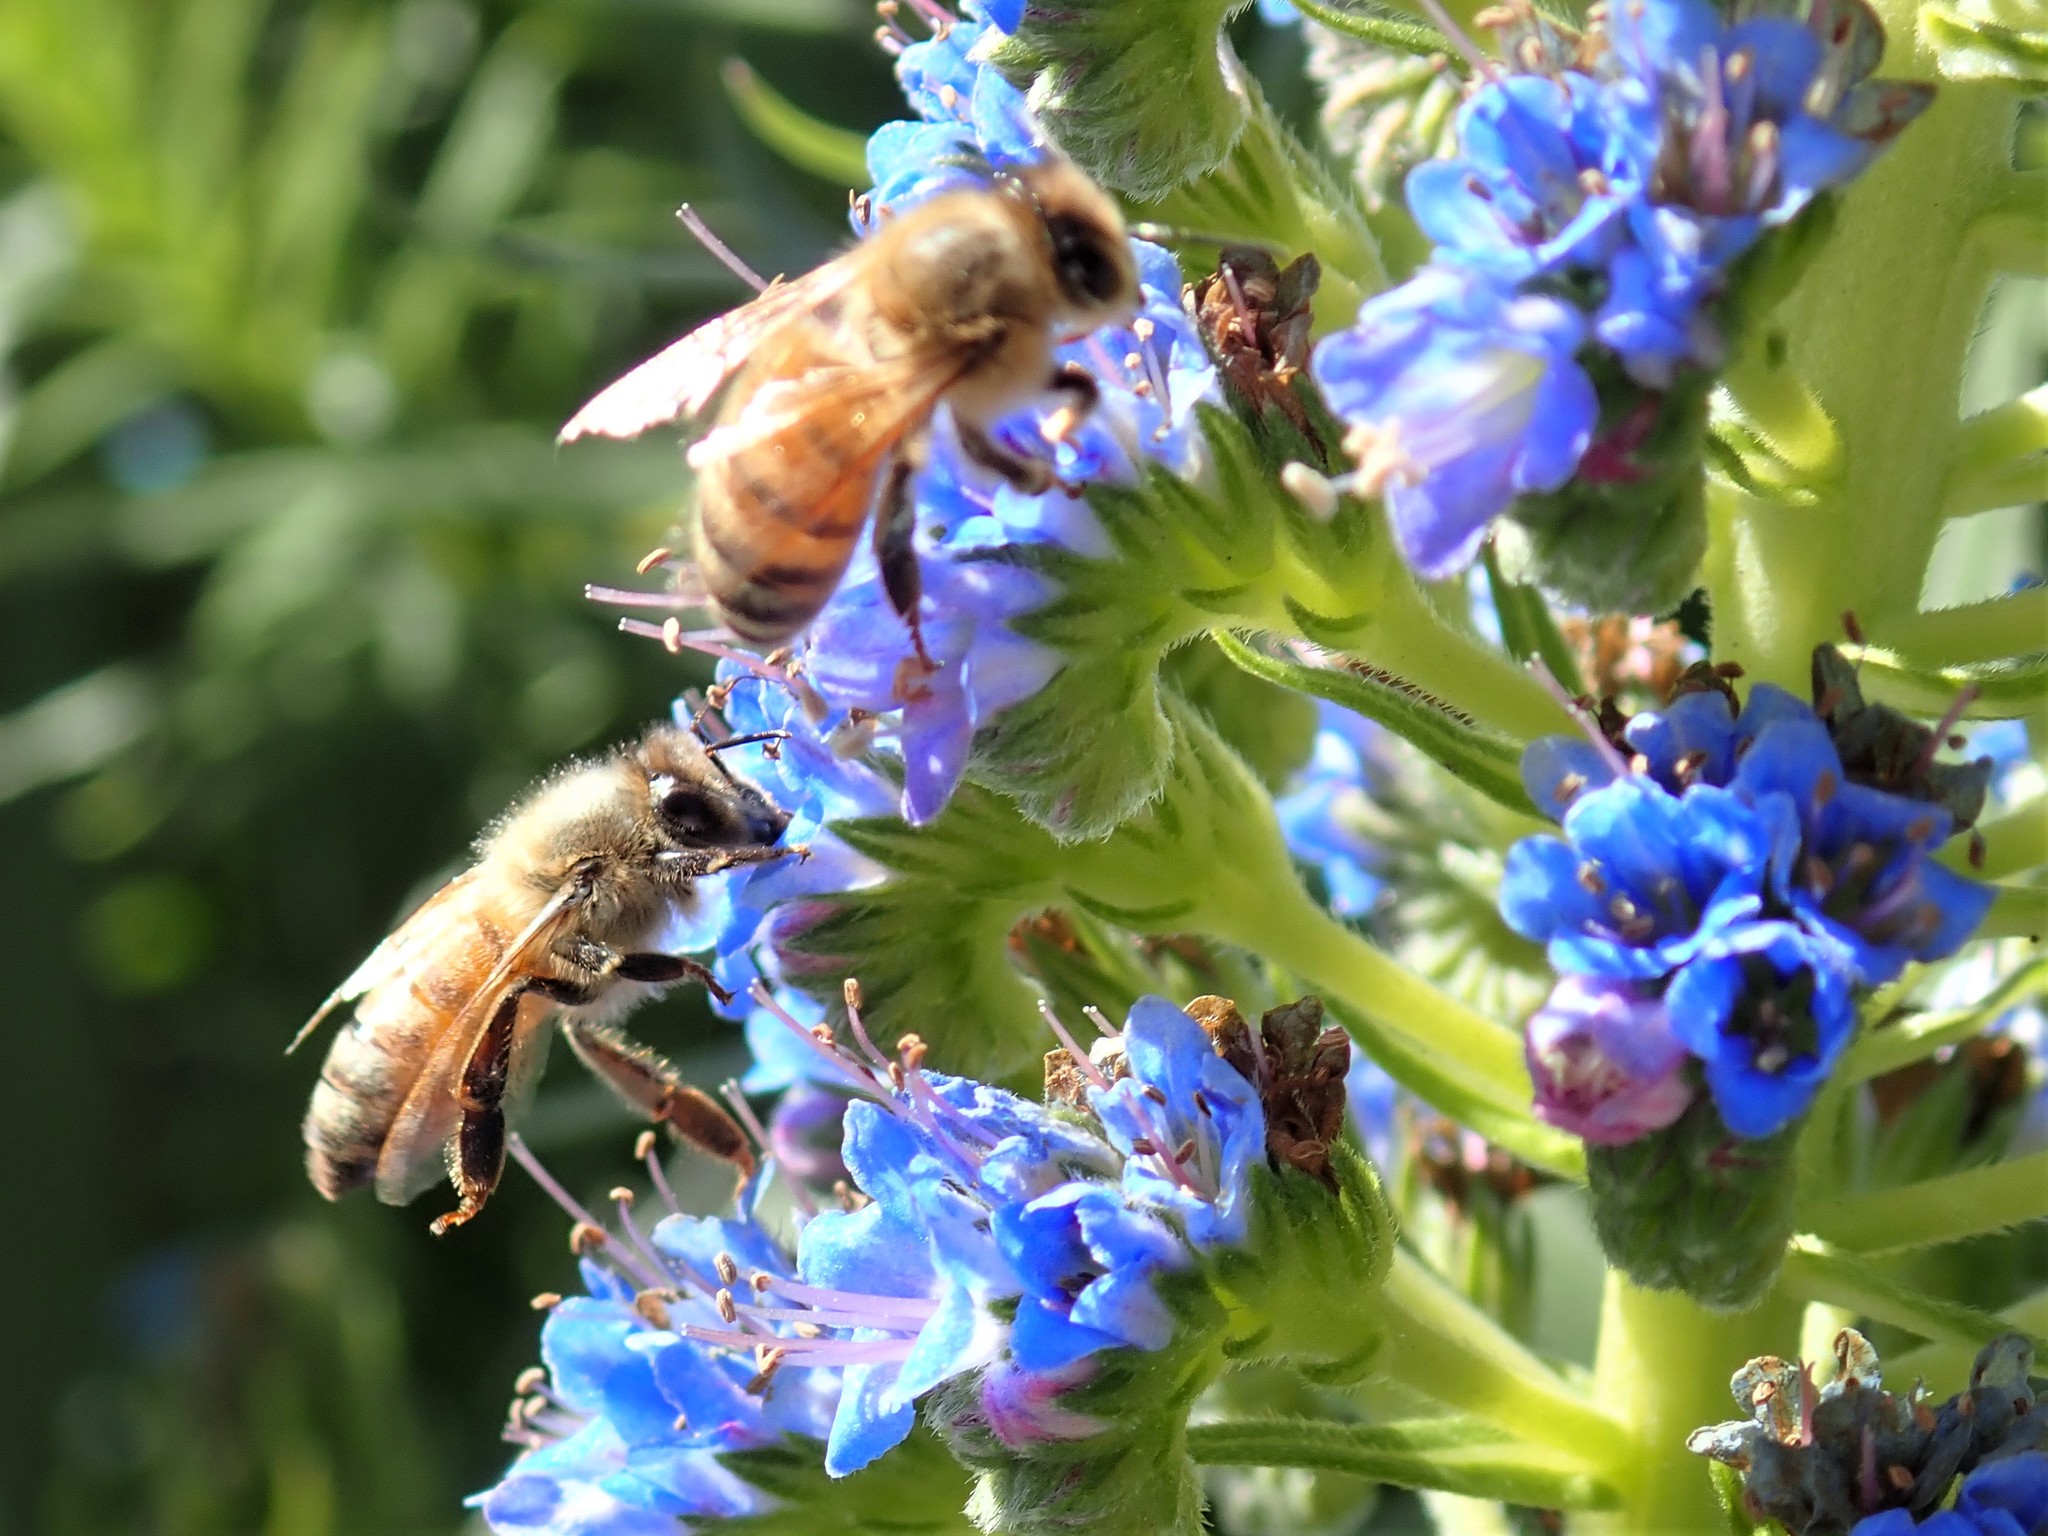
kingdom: Animalia
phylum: Arthropoda
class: Insecta
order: Hymenoptera
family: Apidae
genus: Apis
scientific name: Apis mellifera
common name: Honey bee
